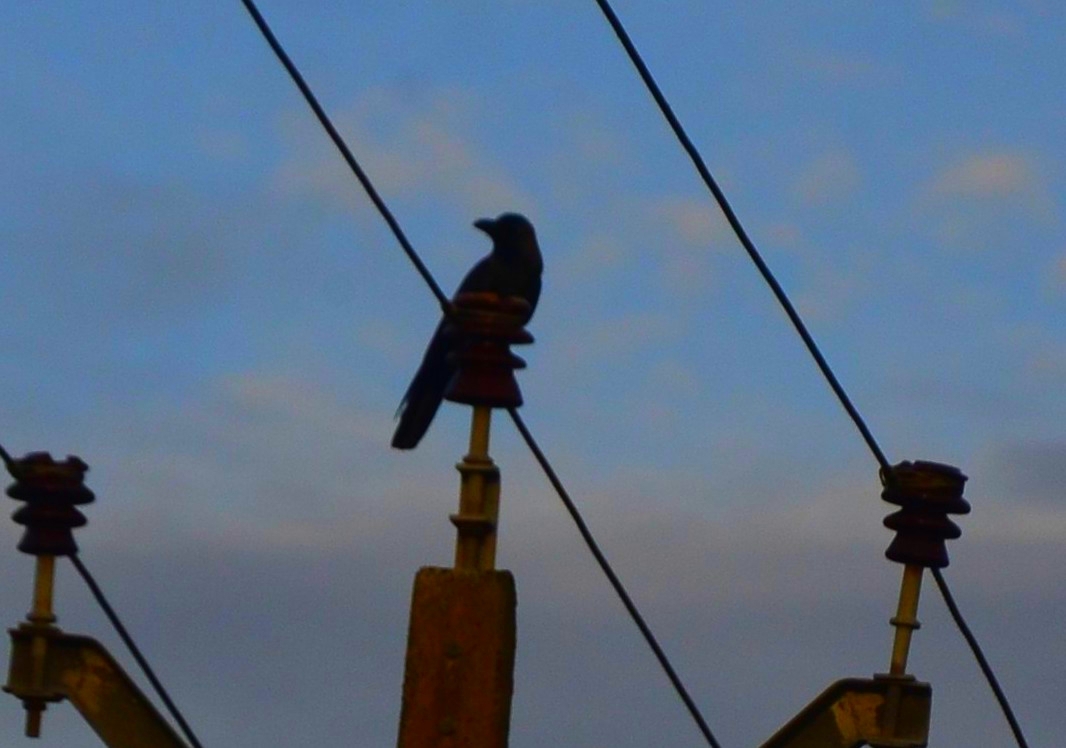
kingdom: Animalia
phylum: Chordata
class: Aves
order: Passeriformes
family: Corvidae
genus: Corvus
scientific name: Corvus splendens
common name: House crow
